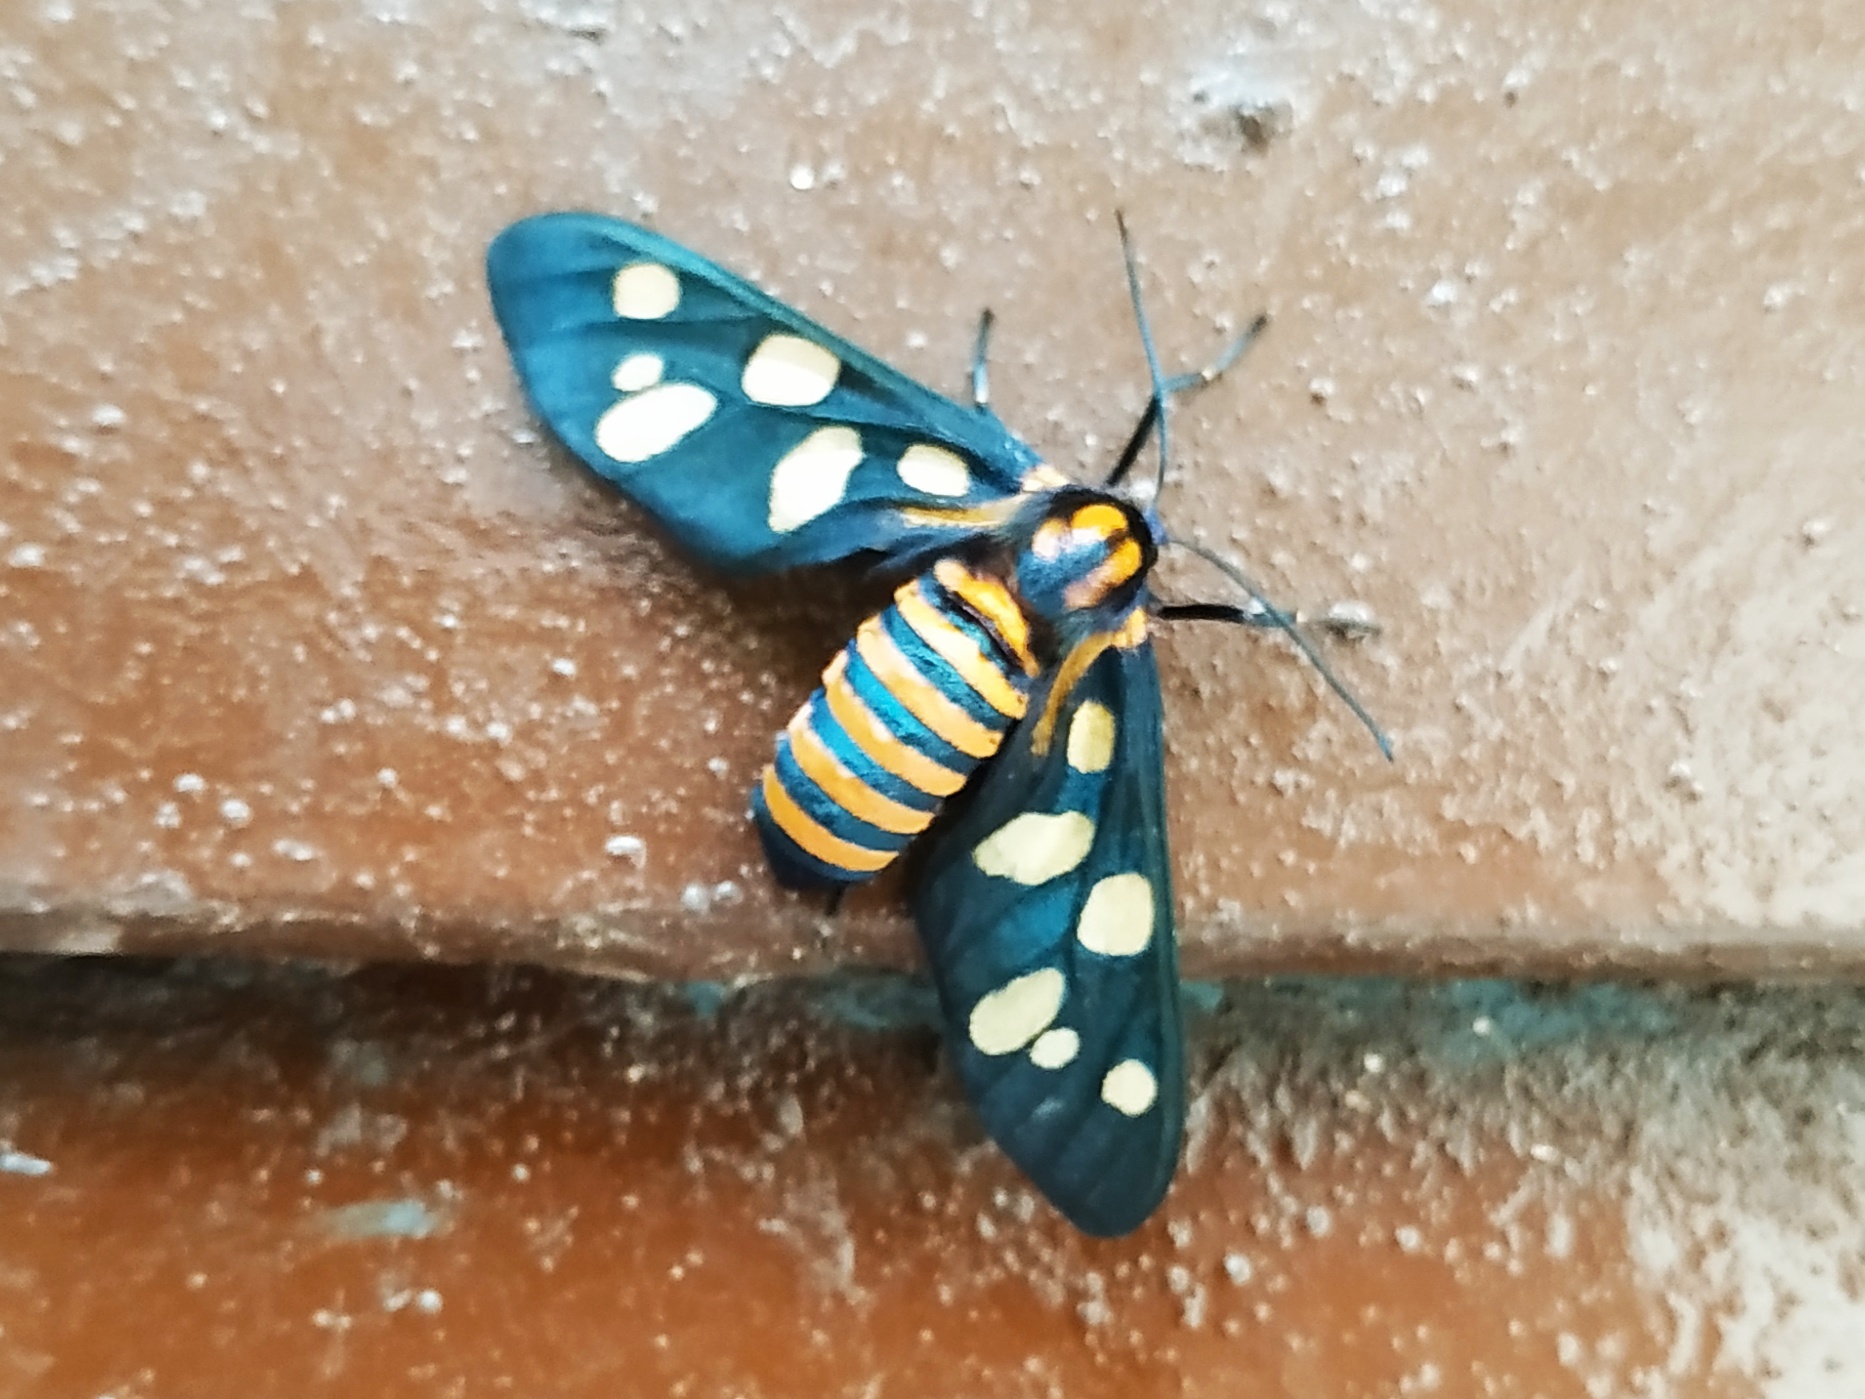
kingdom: Animalia
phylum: Arthropoda
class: Insecta
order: Lepidoptera
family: Erebidae
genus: Amata
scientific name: Amata passalis
